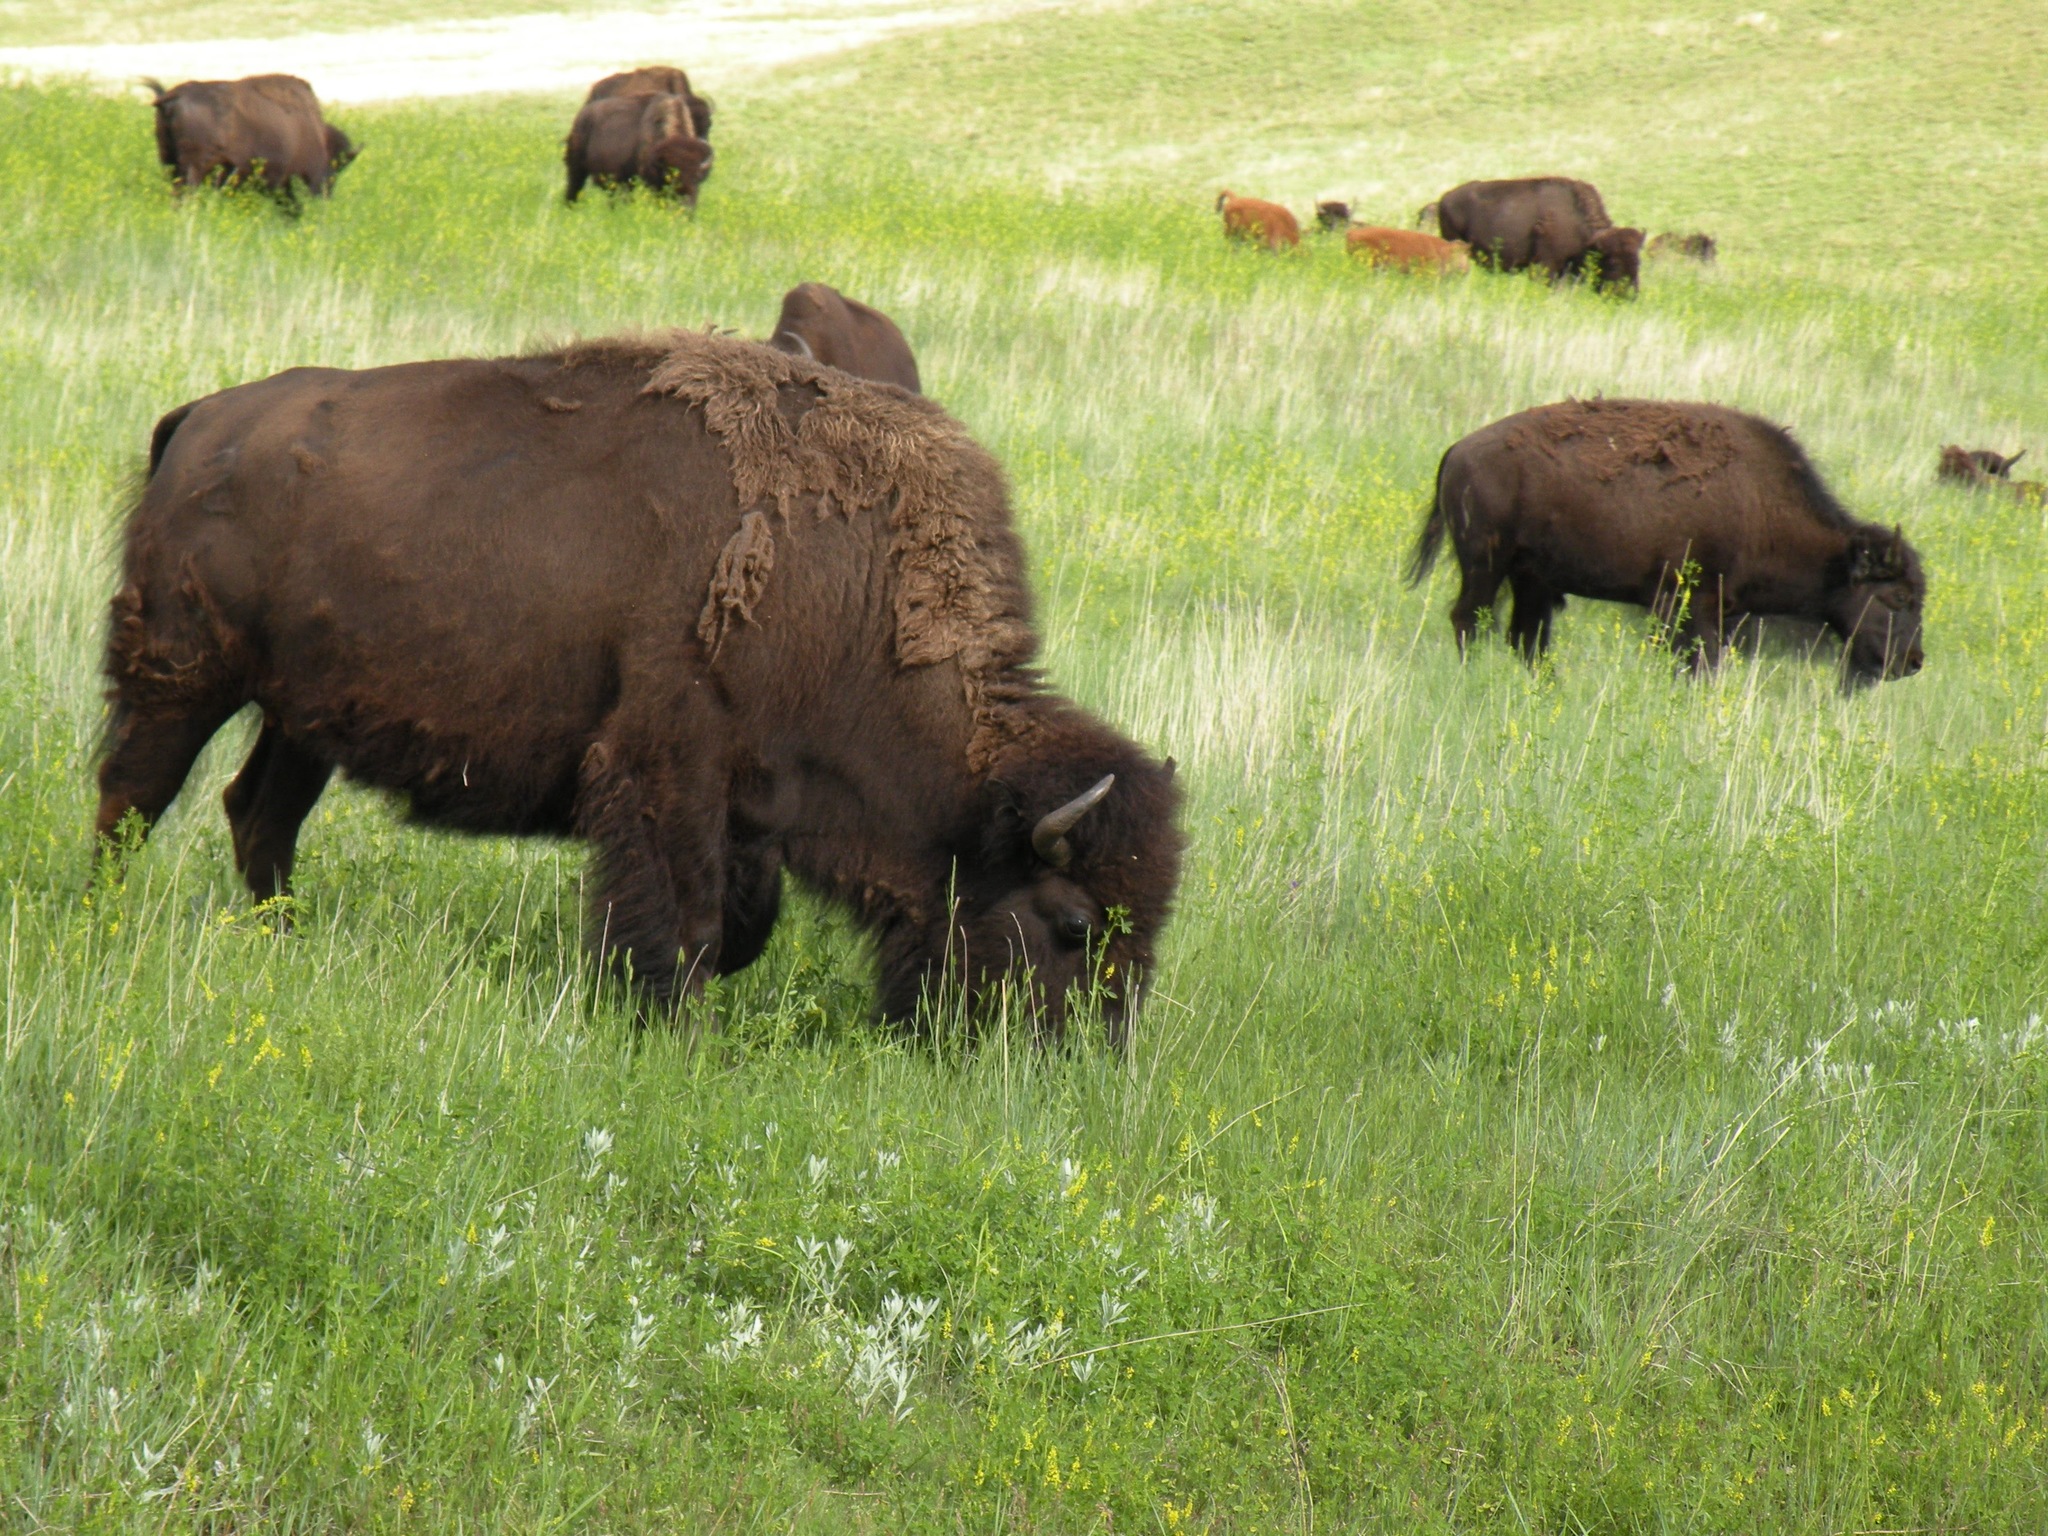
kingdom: Animalia
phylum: Chordata
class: Mammalia
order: Artiodactyla
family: Bovidae
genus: Bison
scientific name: Bison bison
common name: American bison
